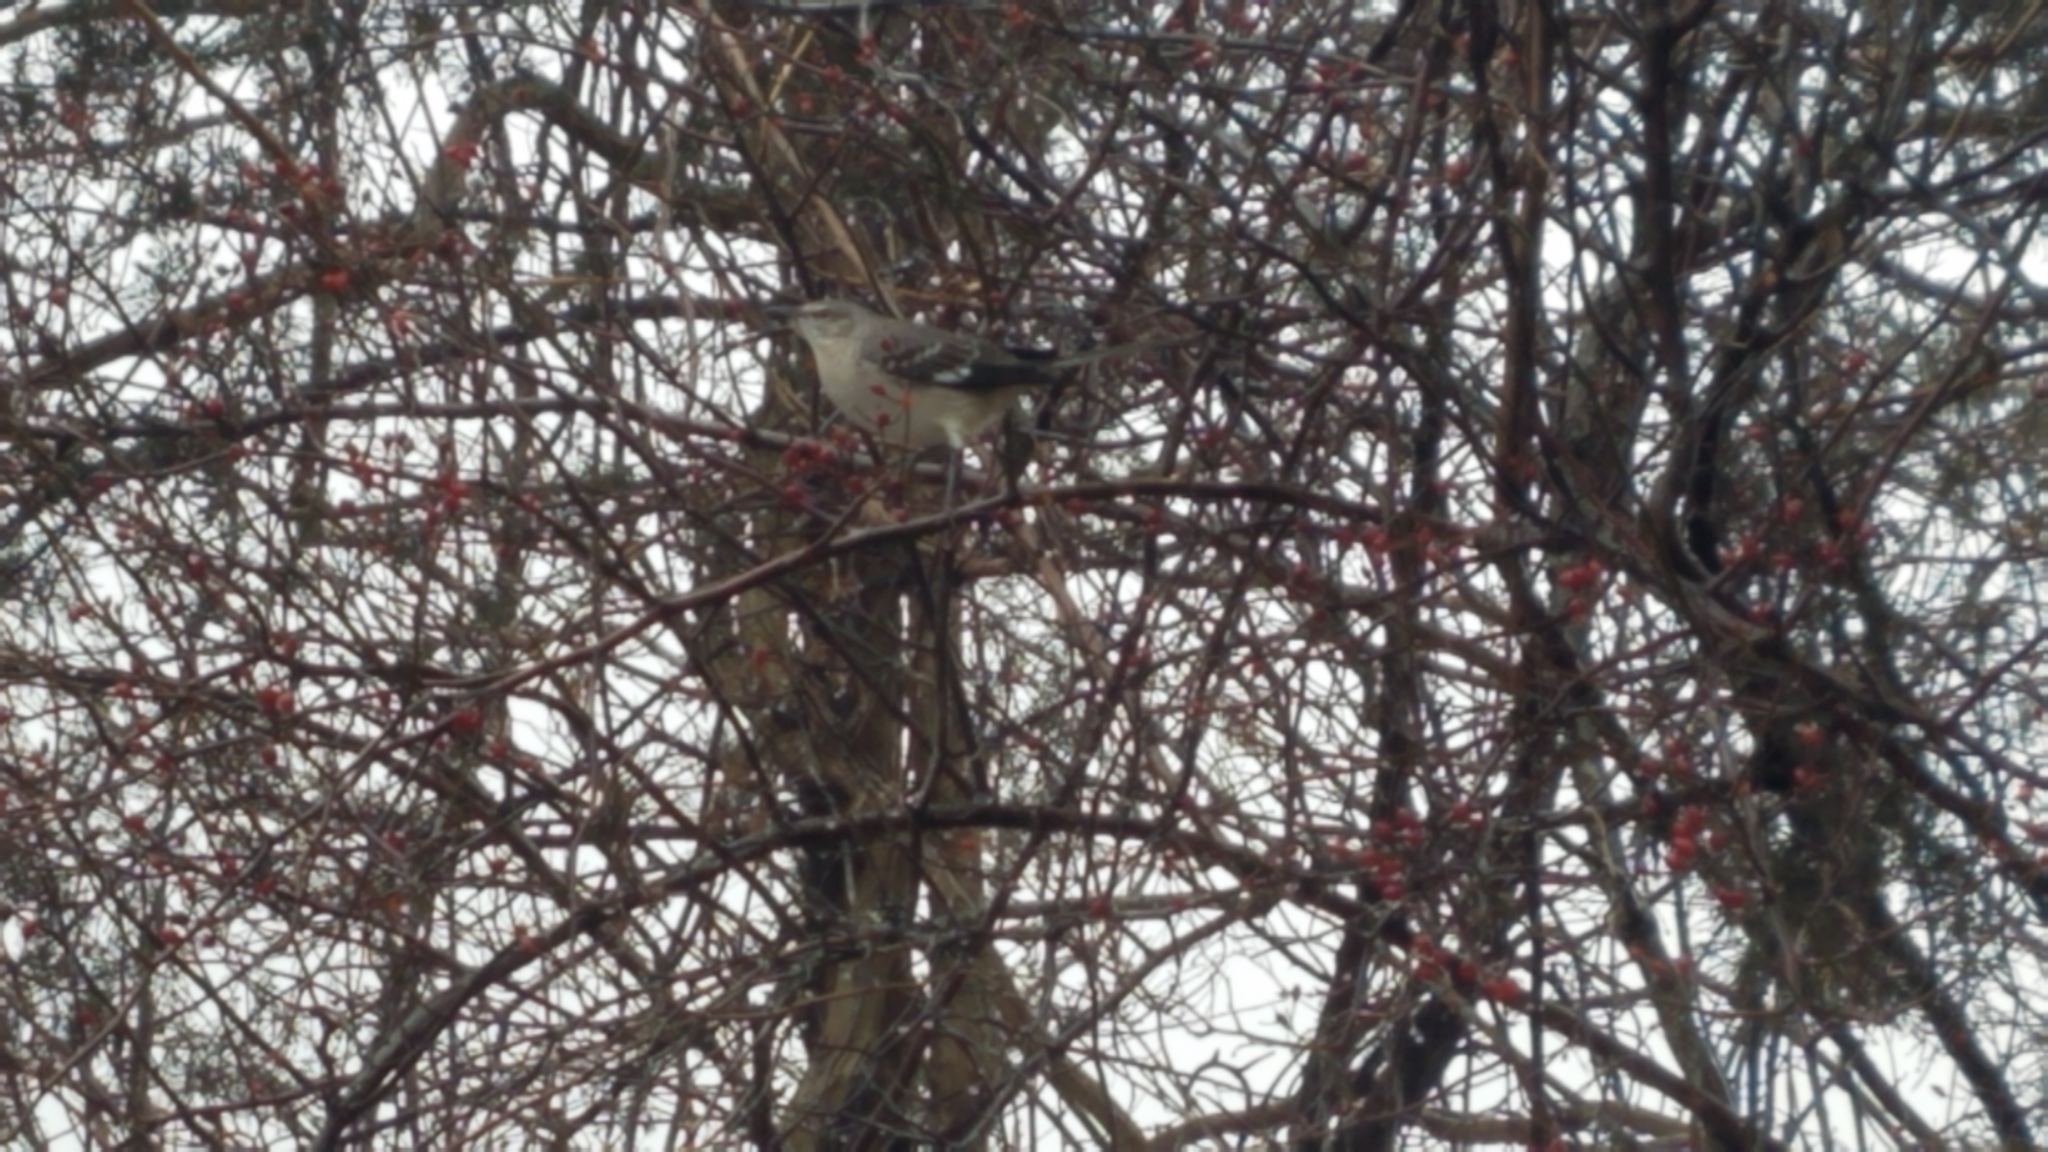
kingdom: Animalia
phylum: Chordata
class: Aves
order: Passeriformes
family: Mimidae
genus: Mimus
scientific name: Mimus polyglottos
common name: Northern mockingbird
